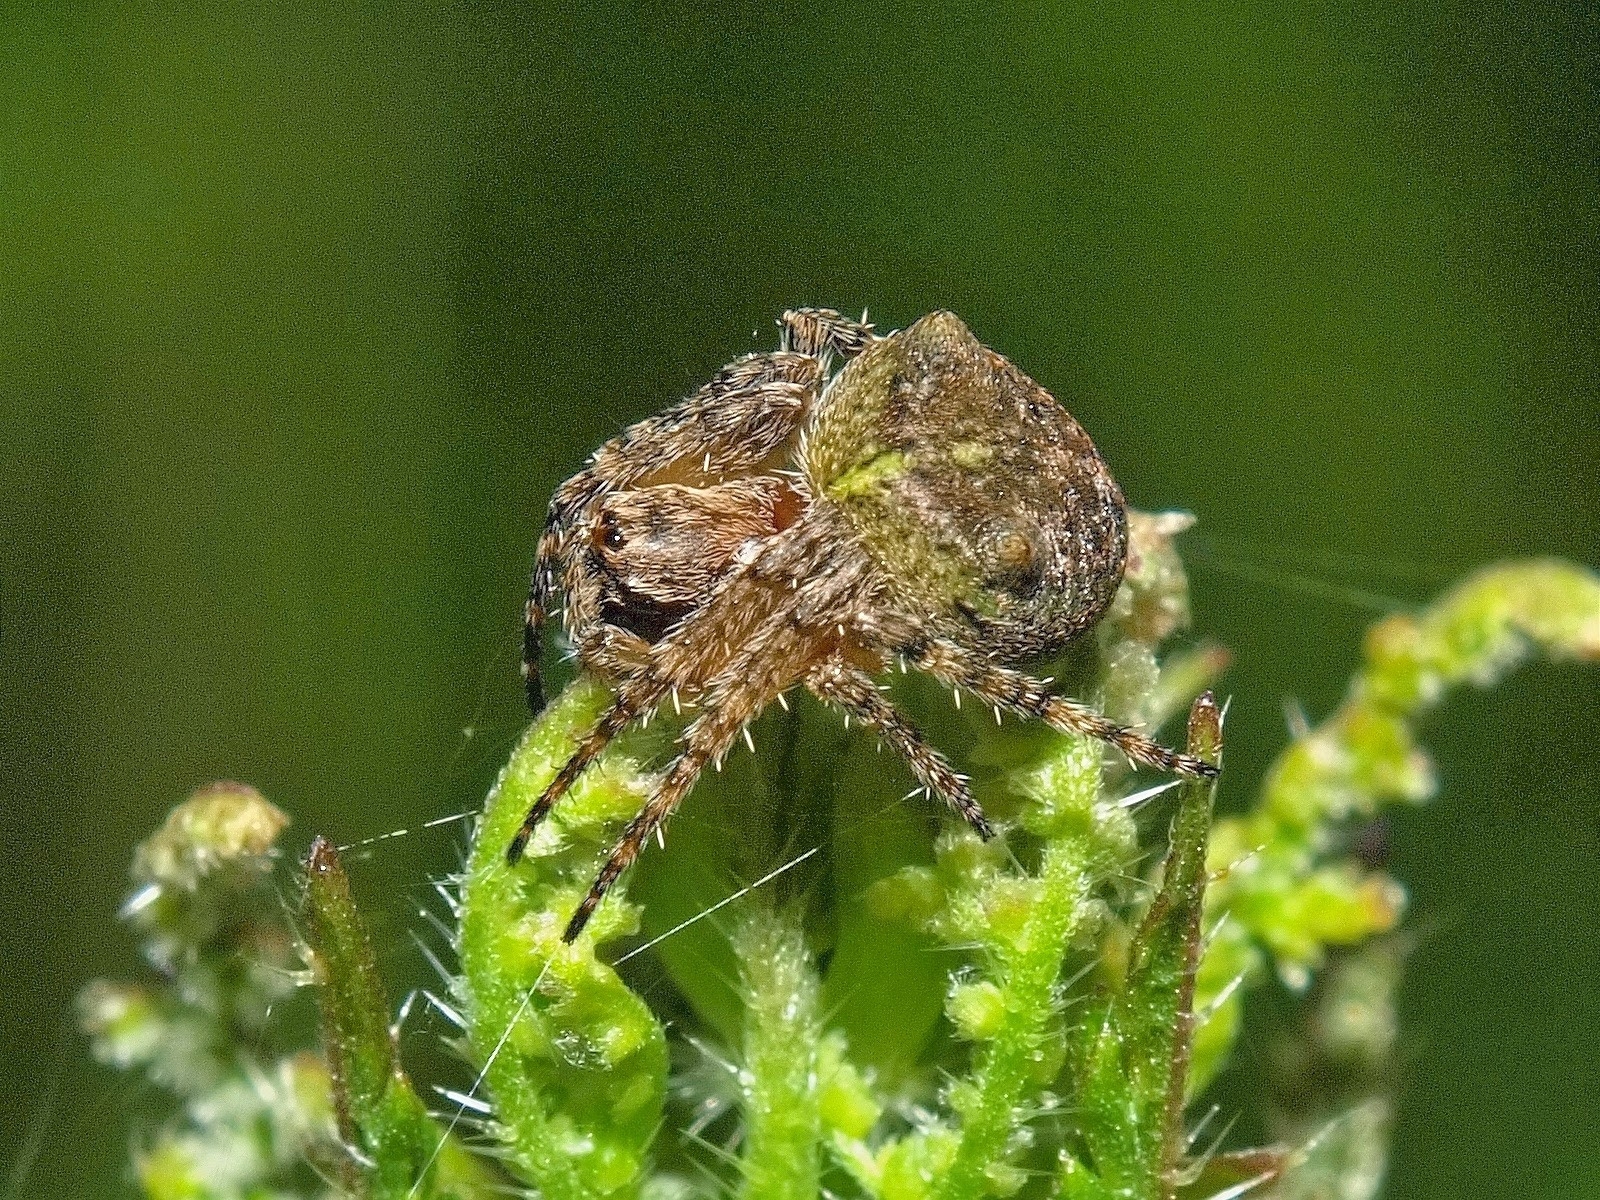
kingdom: Animalia
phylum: Arthropoda
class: Arachnida
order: Araneae
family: Araneidae
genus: Gibbaranea
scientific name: Gibbaranea gibbosa
